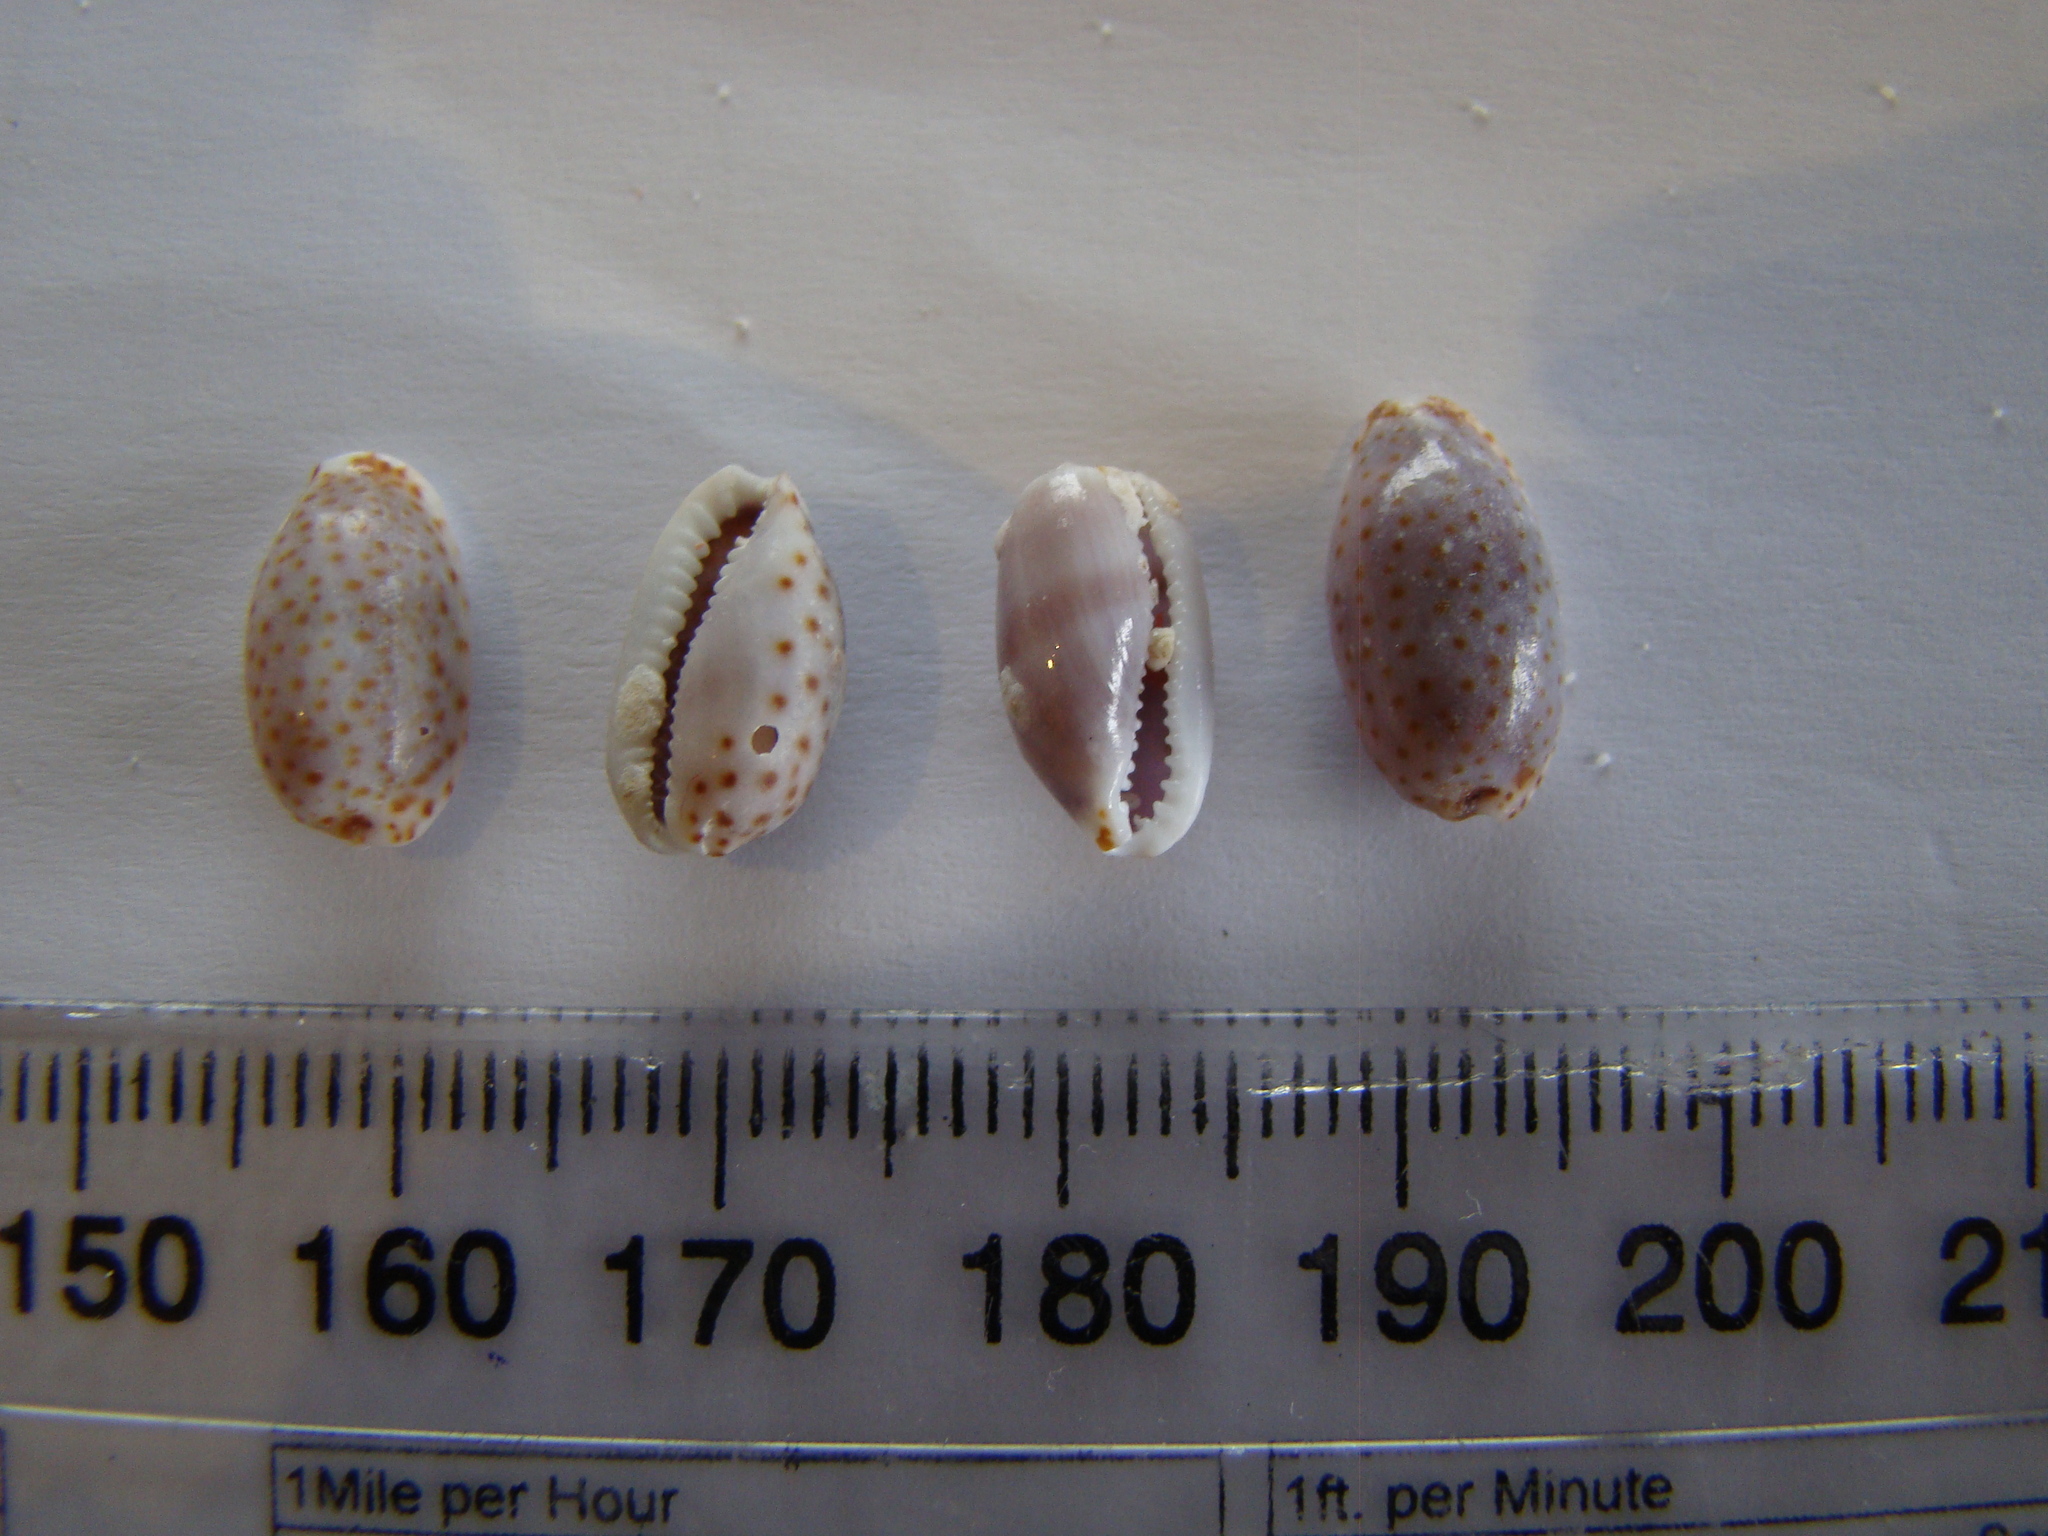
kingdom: Animalia
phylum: Mollusca
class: Gastropoda
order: Littorinimorpha
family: Cypraeidae
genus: Naria
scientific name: Naria irrorata
